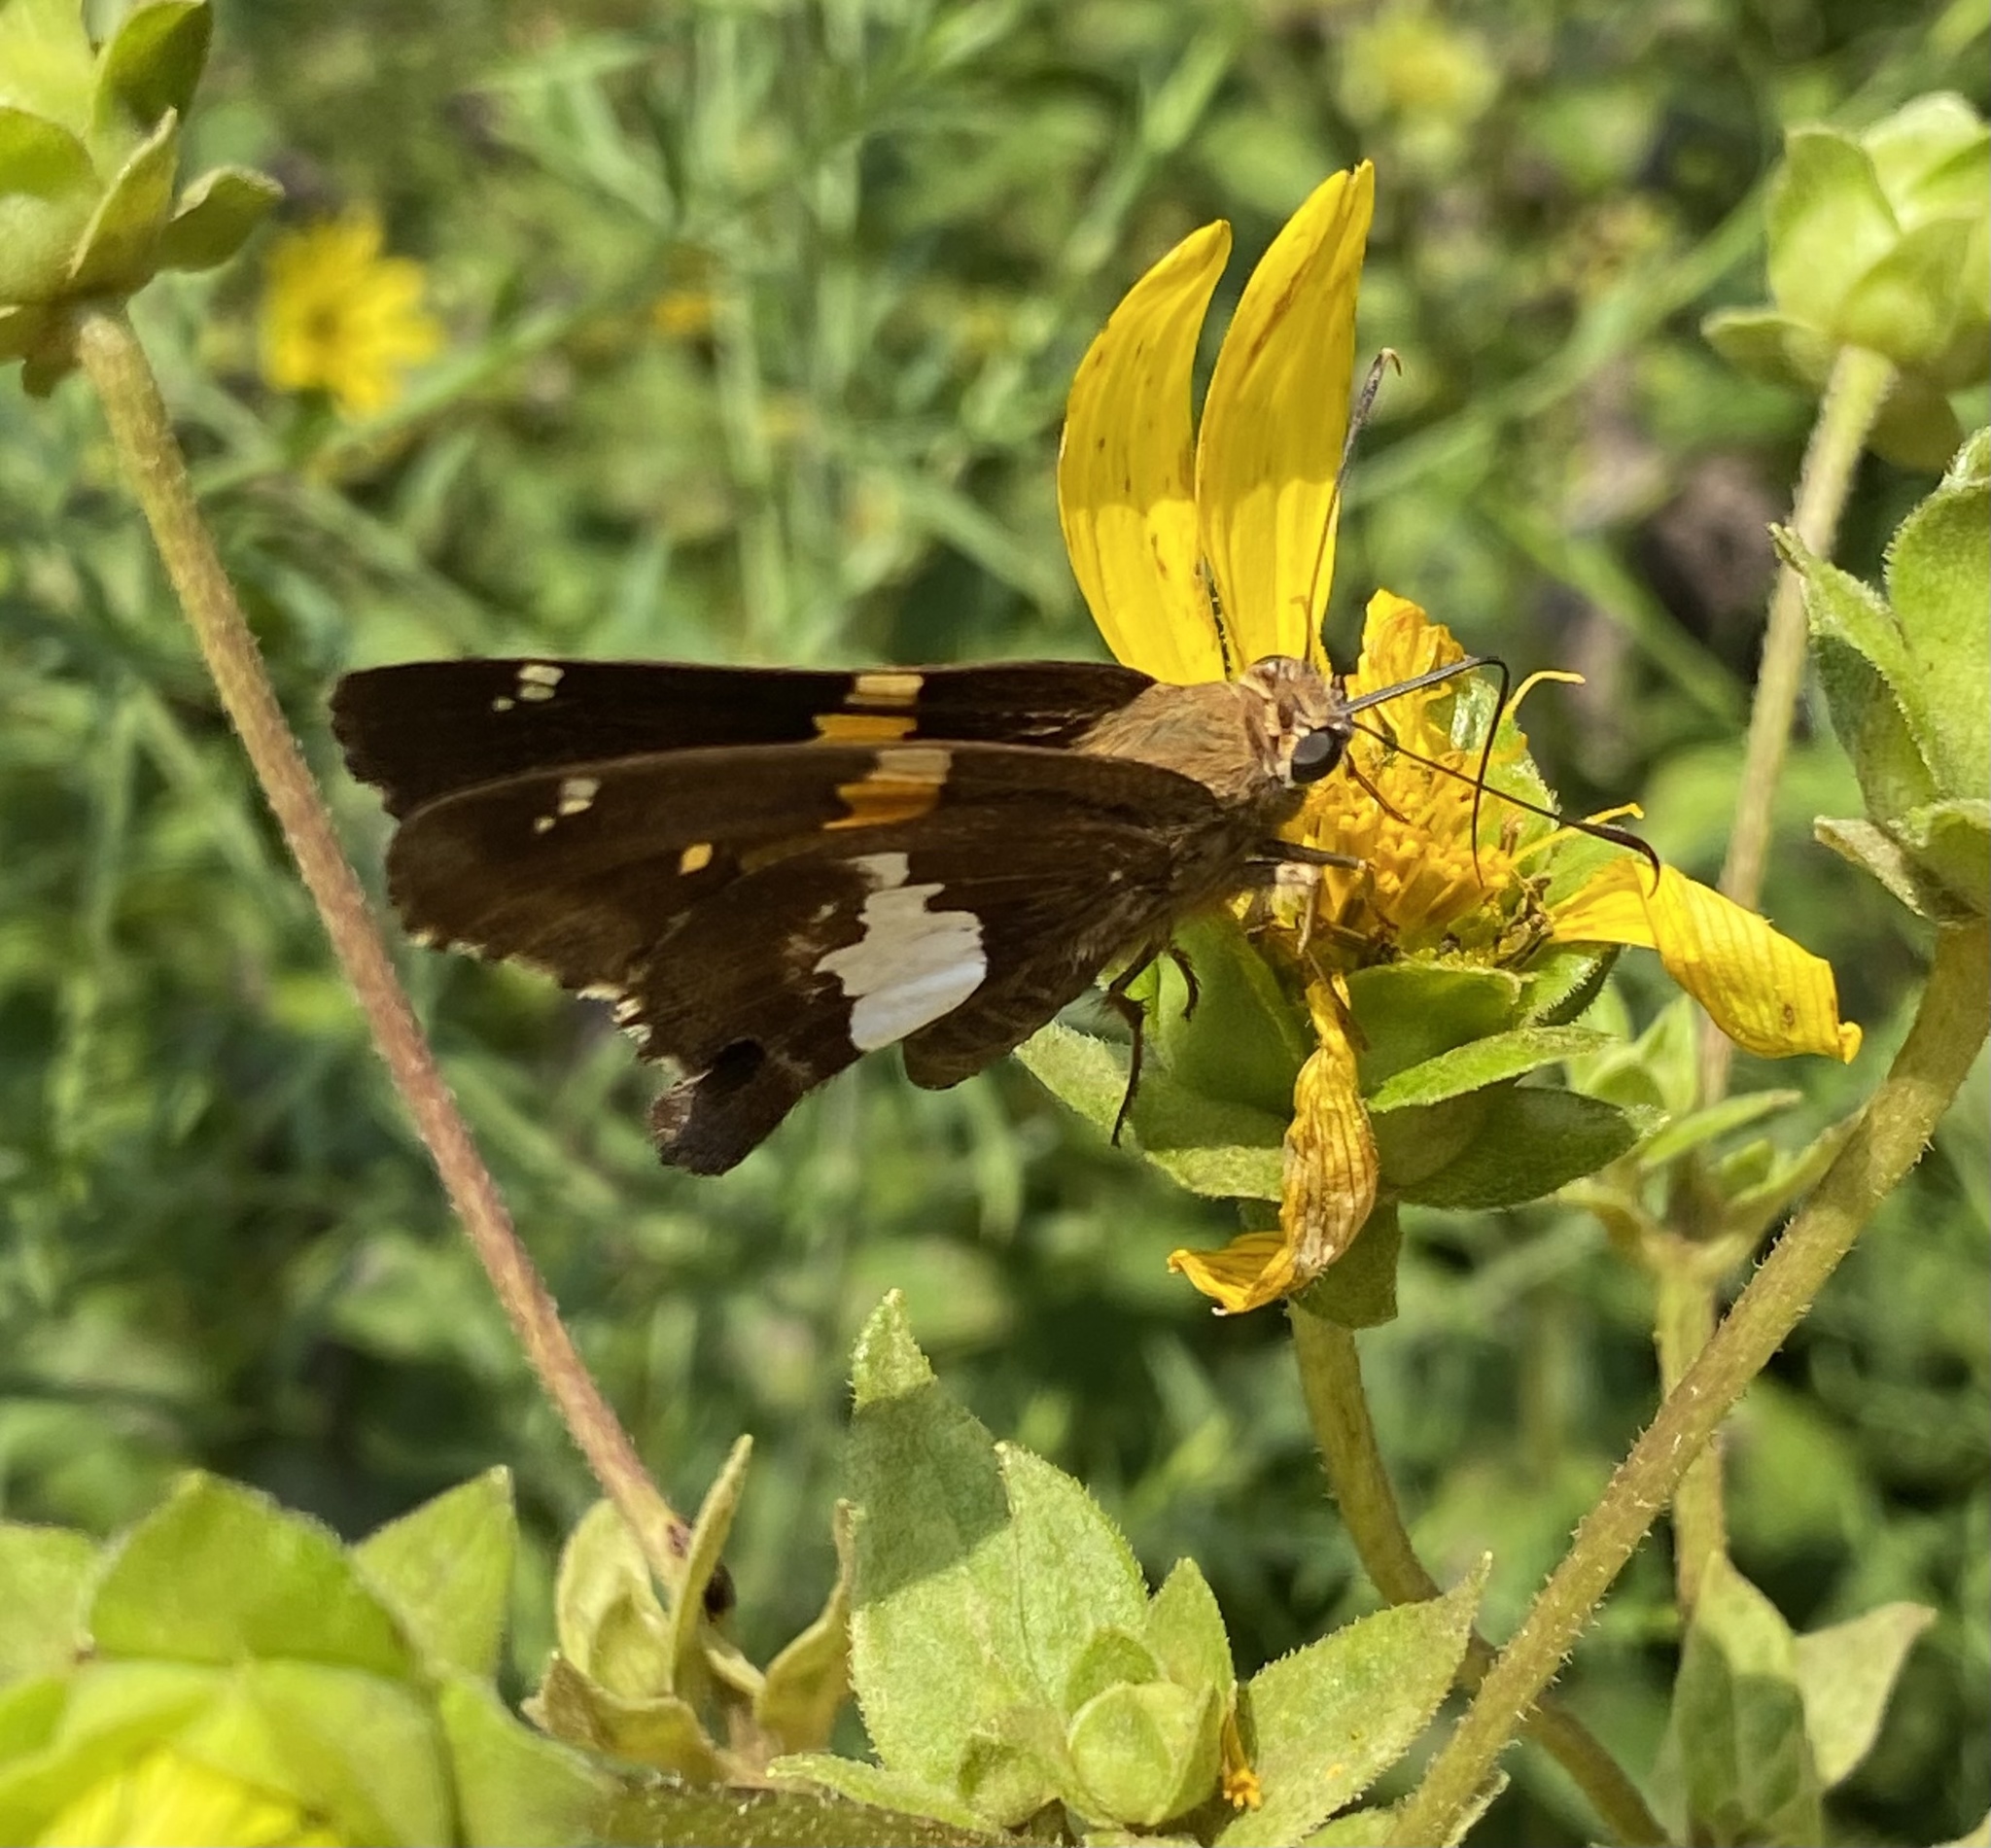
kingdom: Animalia
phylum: Arthropoda
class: Insecta
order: Lepidoptera
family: Hesperiidae
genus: Epargyreus
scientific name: Epargyreus clarus
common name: Silver-spotted skipper
